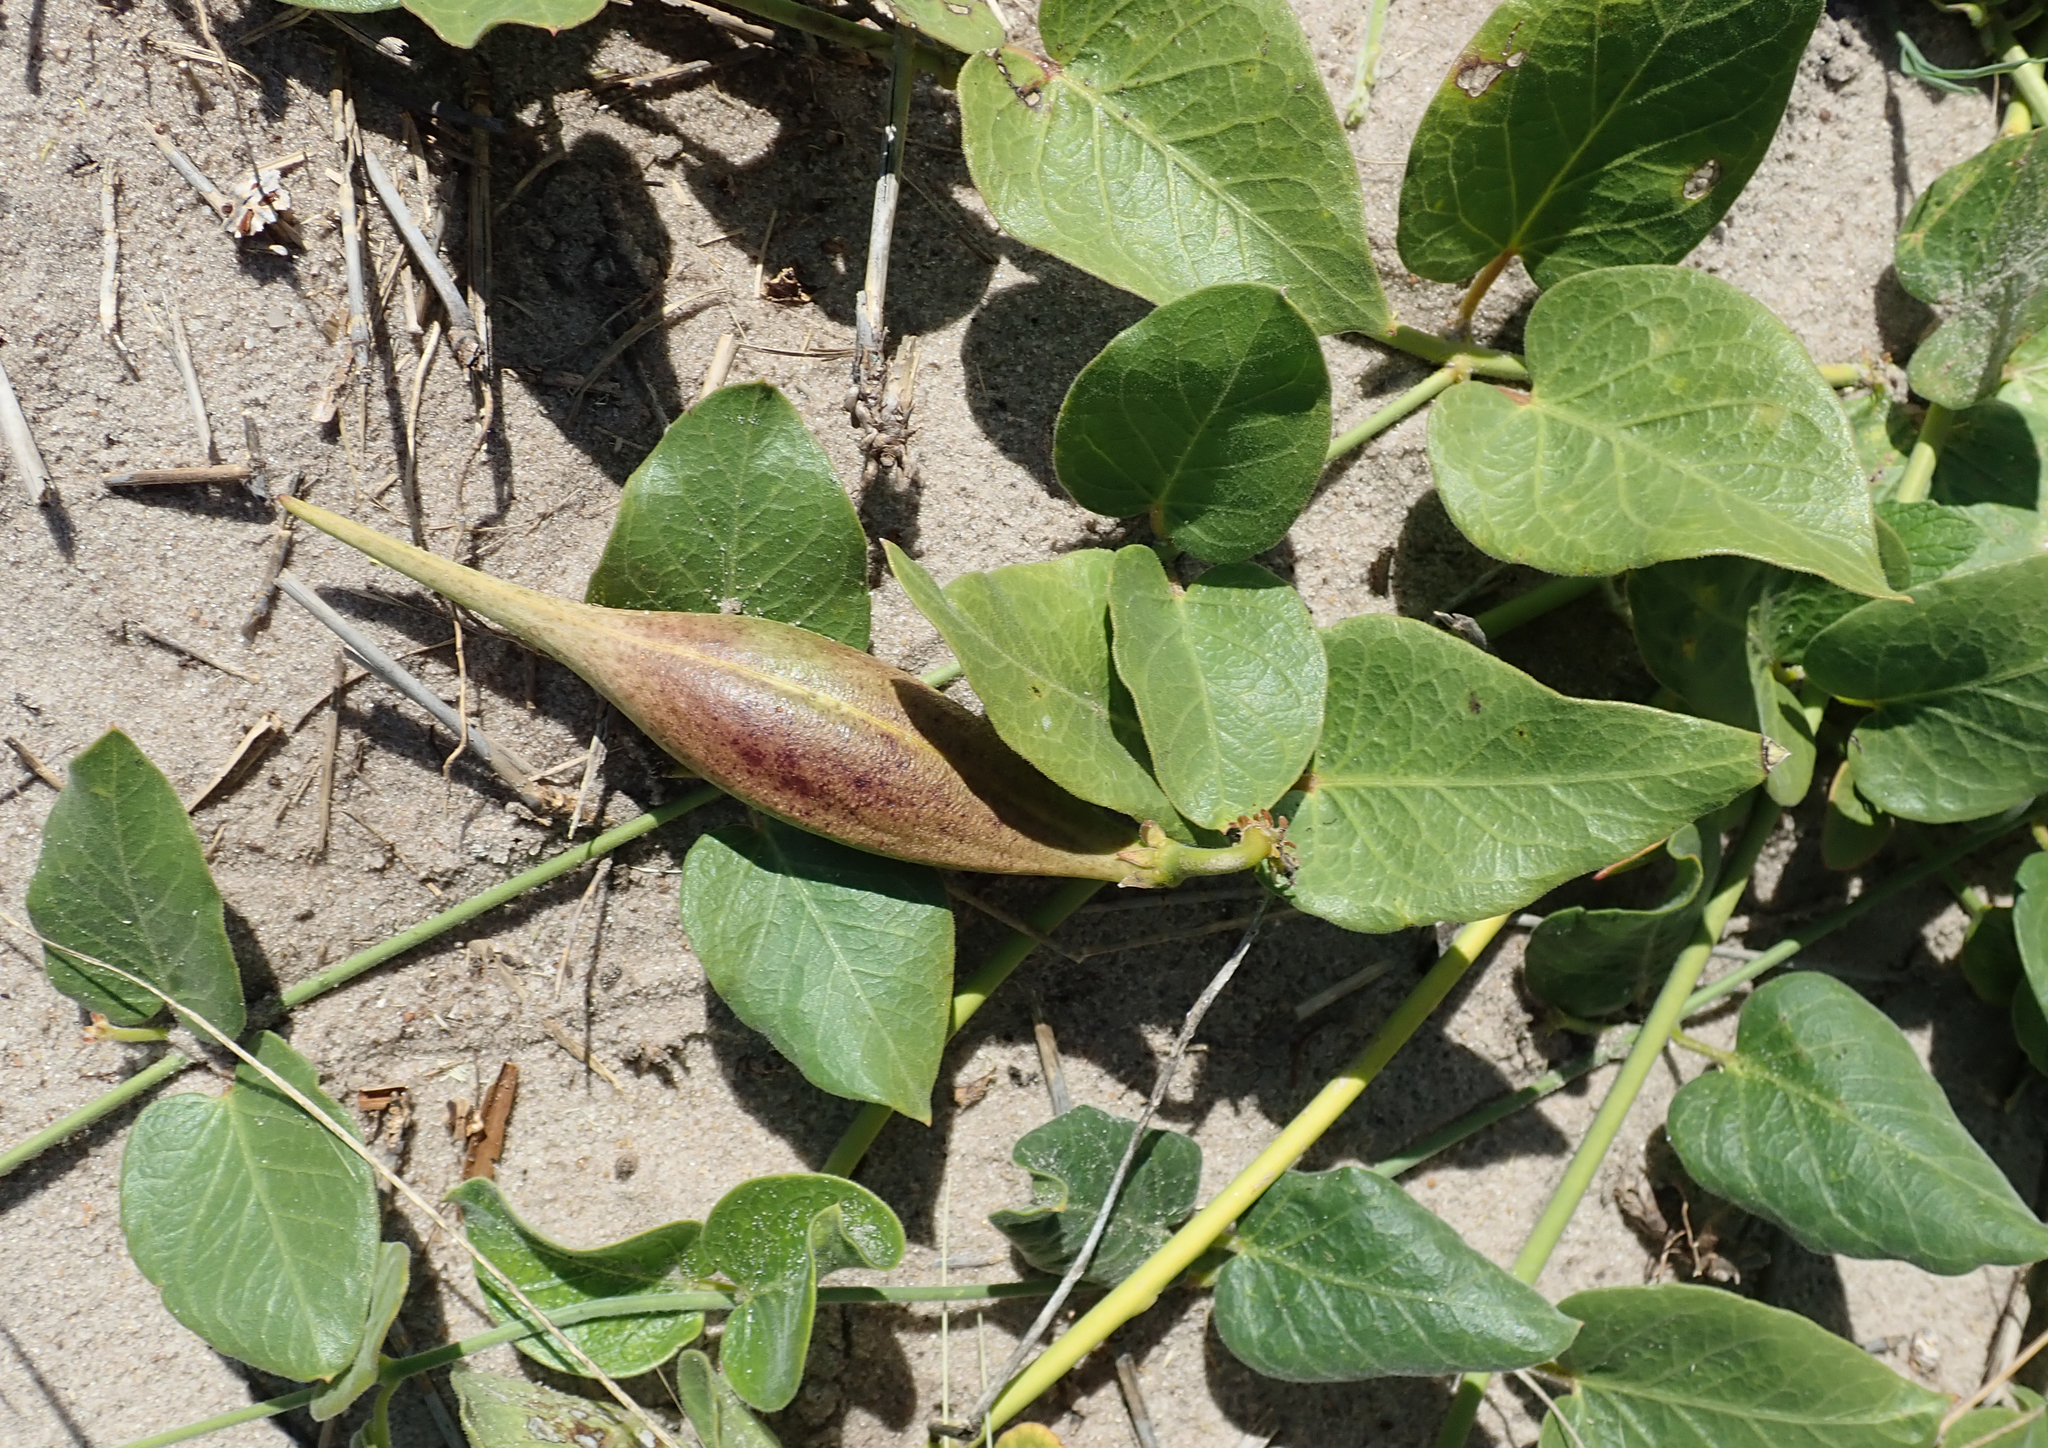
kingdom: Plantae
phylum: Tracheophyta
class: Magnoliopsida
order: Gentianales
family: Apocynaceae
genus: Orthanthera
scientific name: Orthanthera jasminiflora
